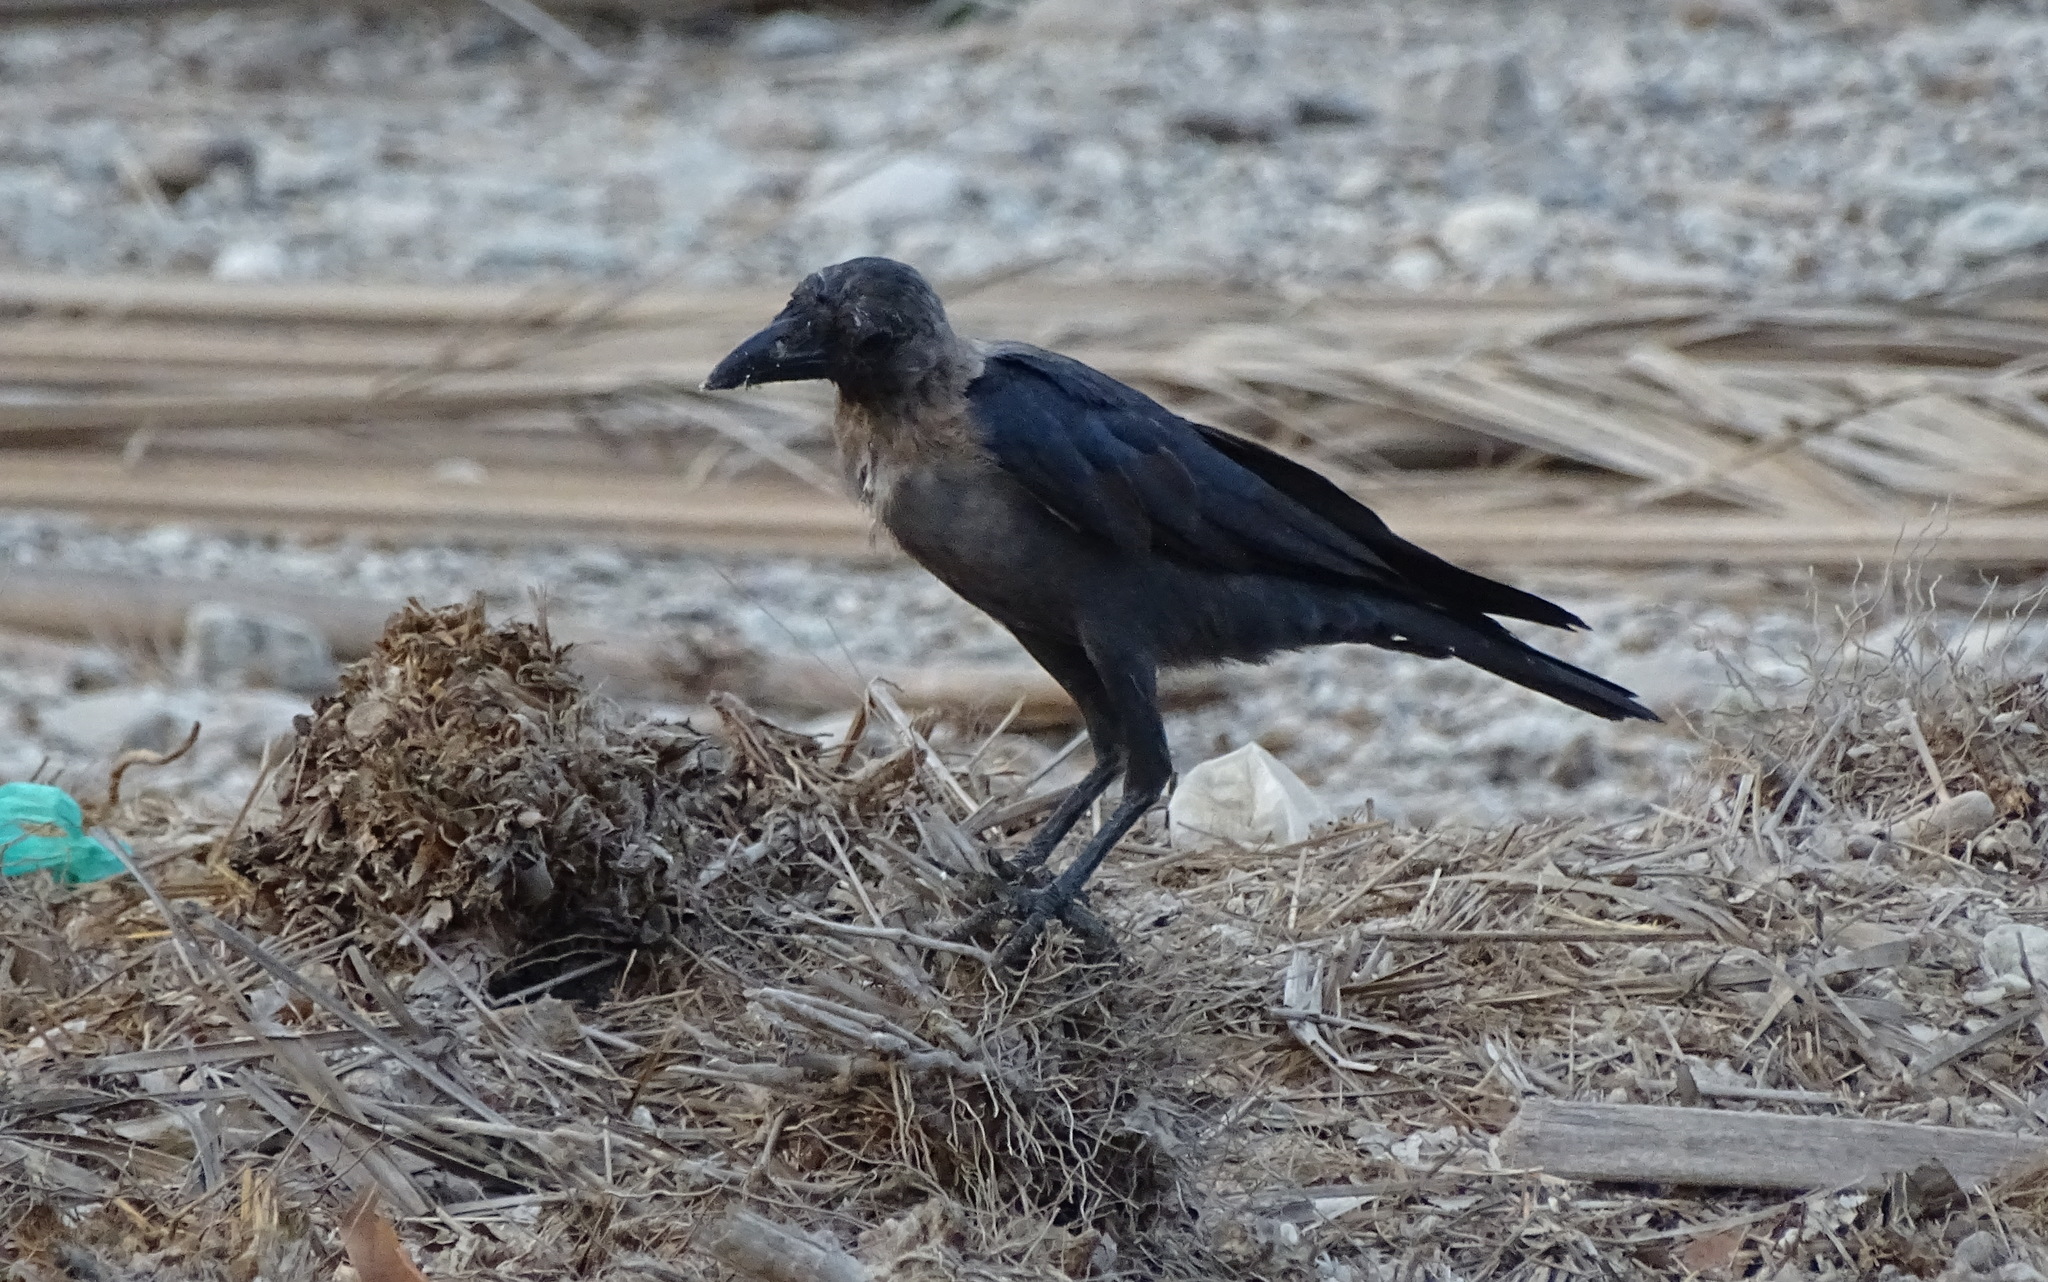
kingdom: Animalia
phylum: Chordata
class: Aves
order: Passeriformes
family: Corvidae
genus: Corvus
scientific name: Corvus splendens
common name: House crow
